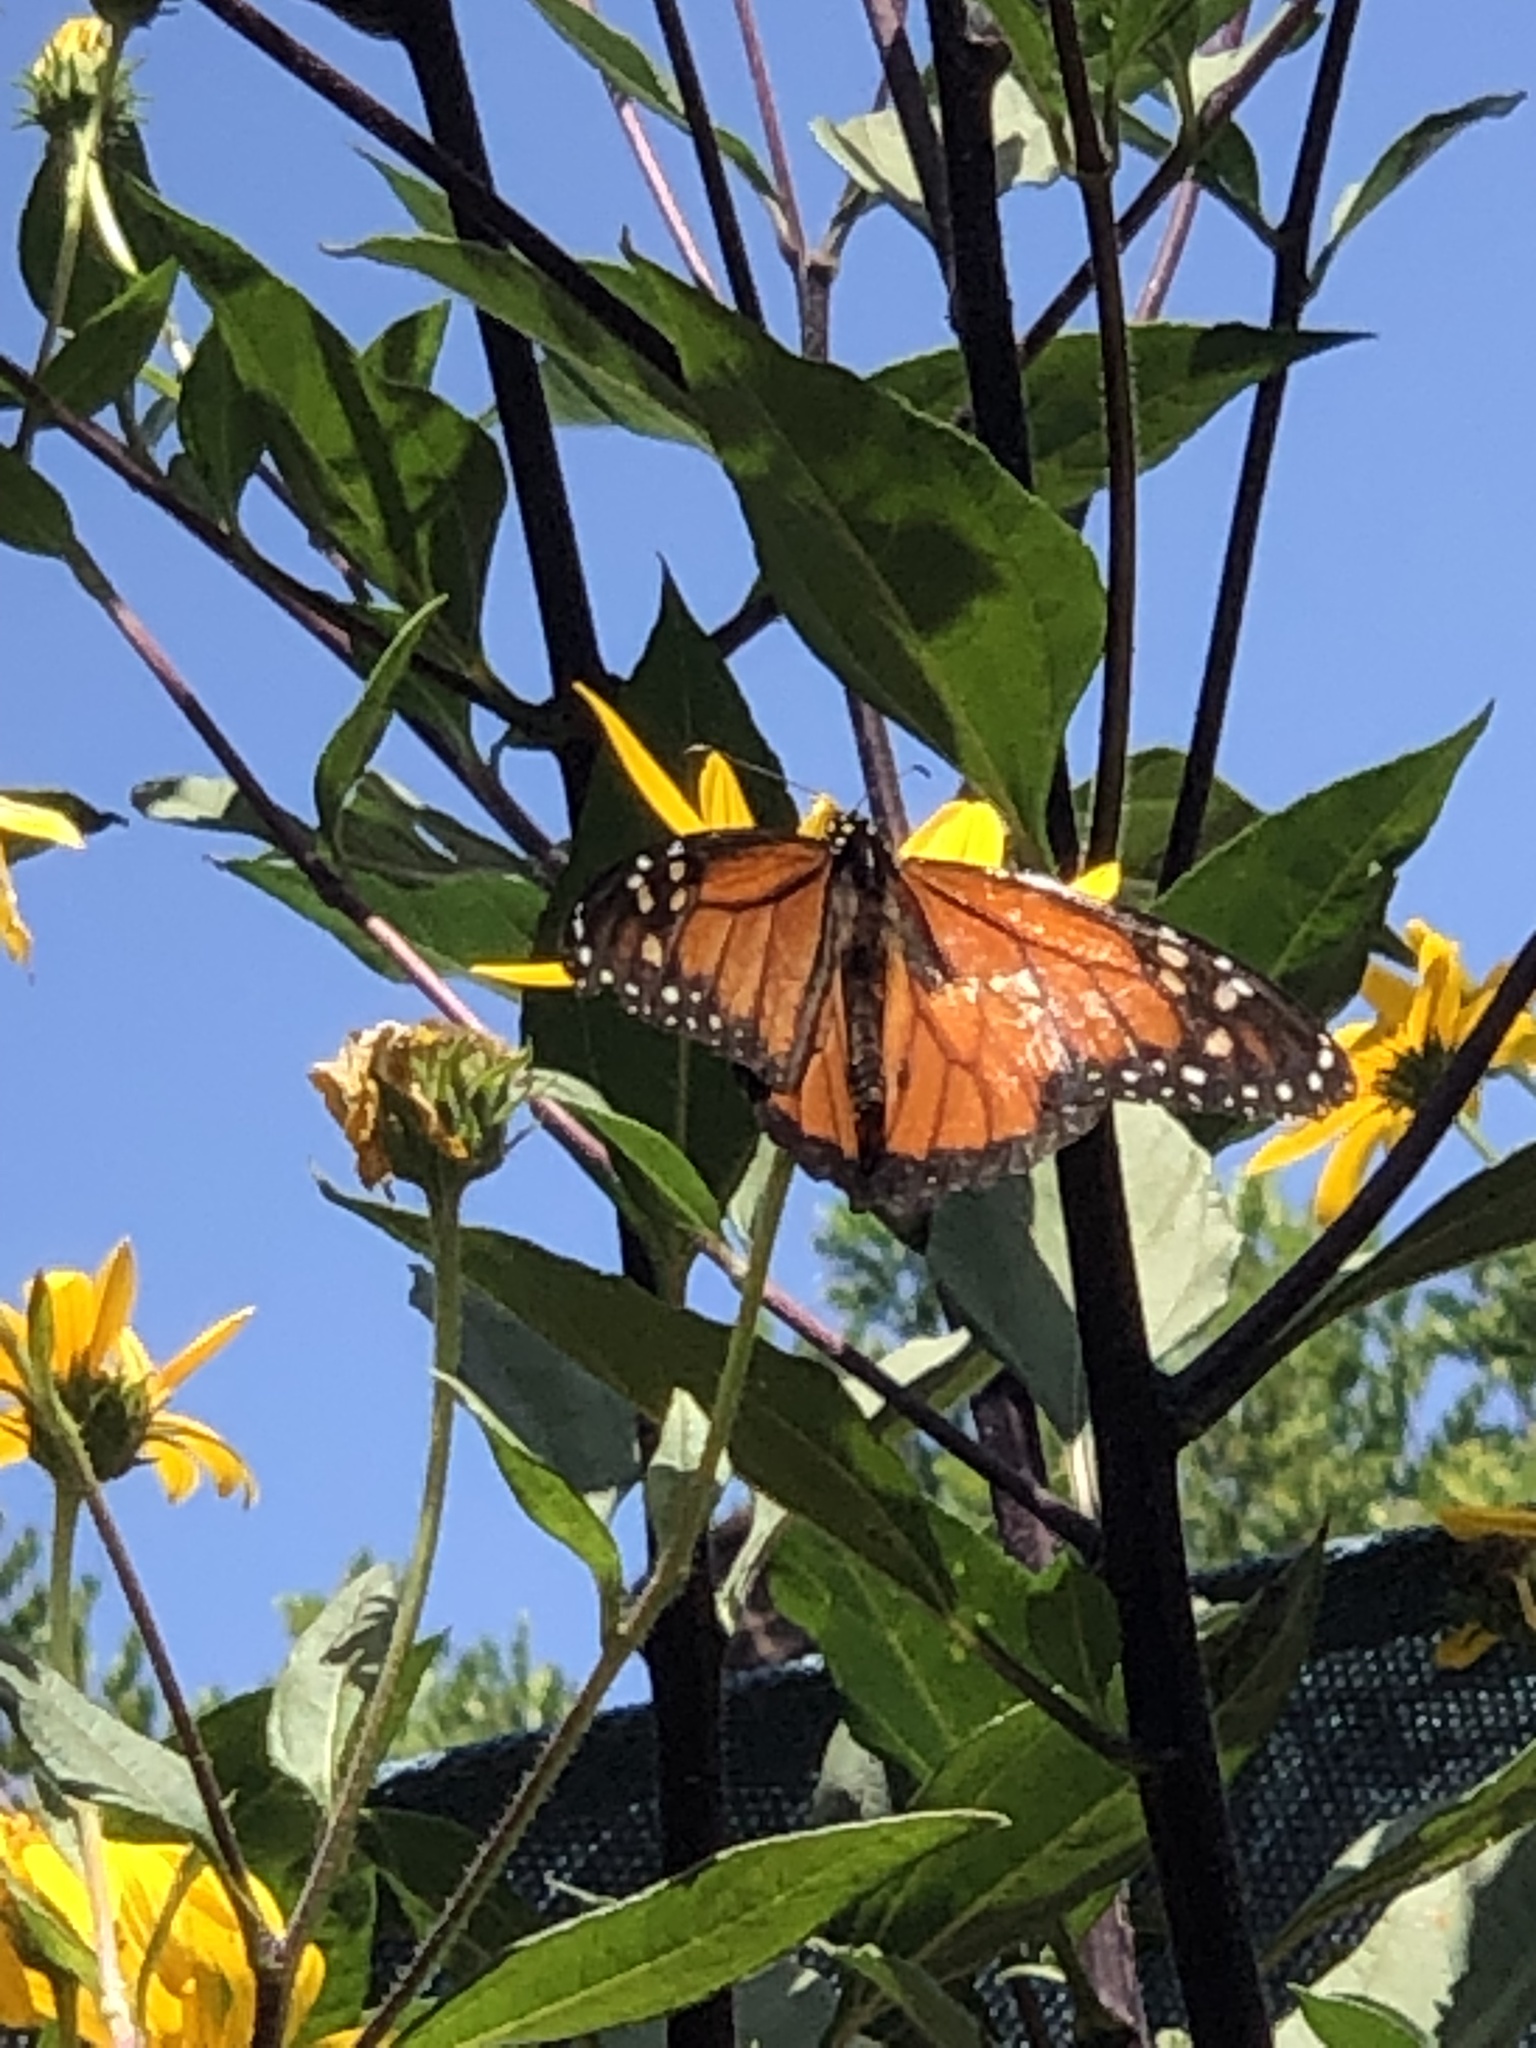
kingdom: Animalia
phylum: Arthropoda
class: Insecta
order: Lepidoptera
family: Nymphalidae
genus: Danaus
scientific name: Danaus plexippus
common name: Monarch
